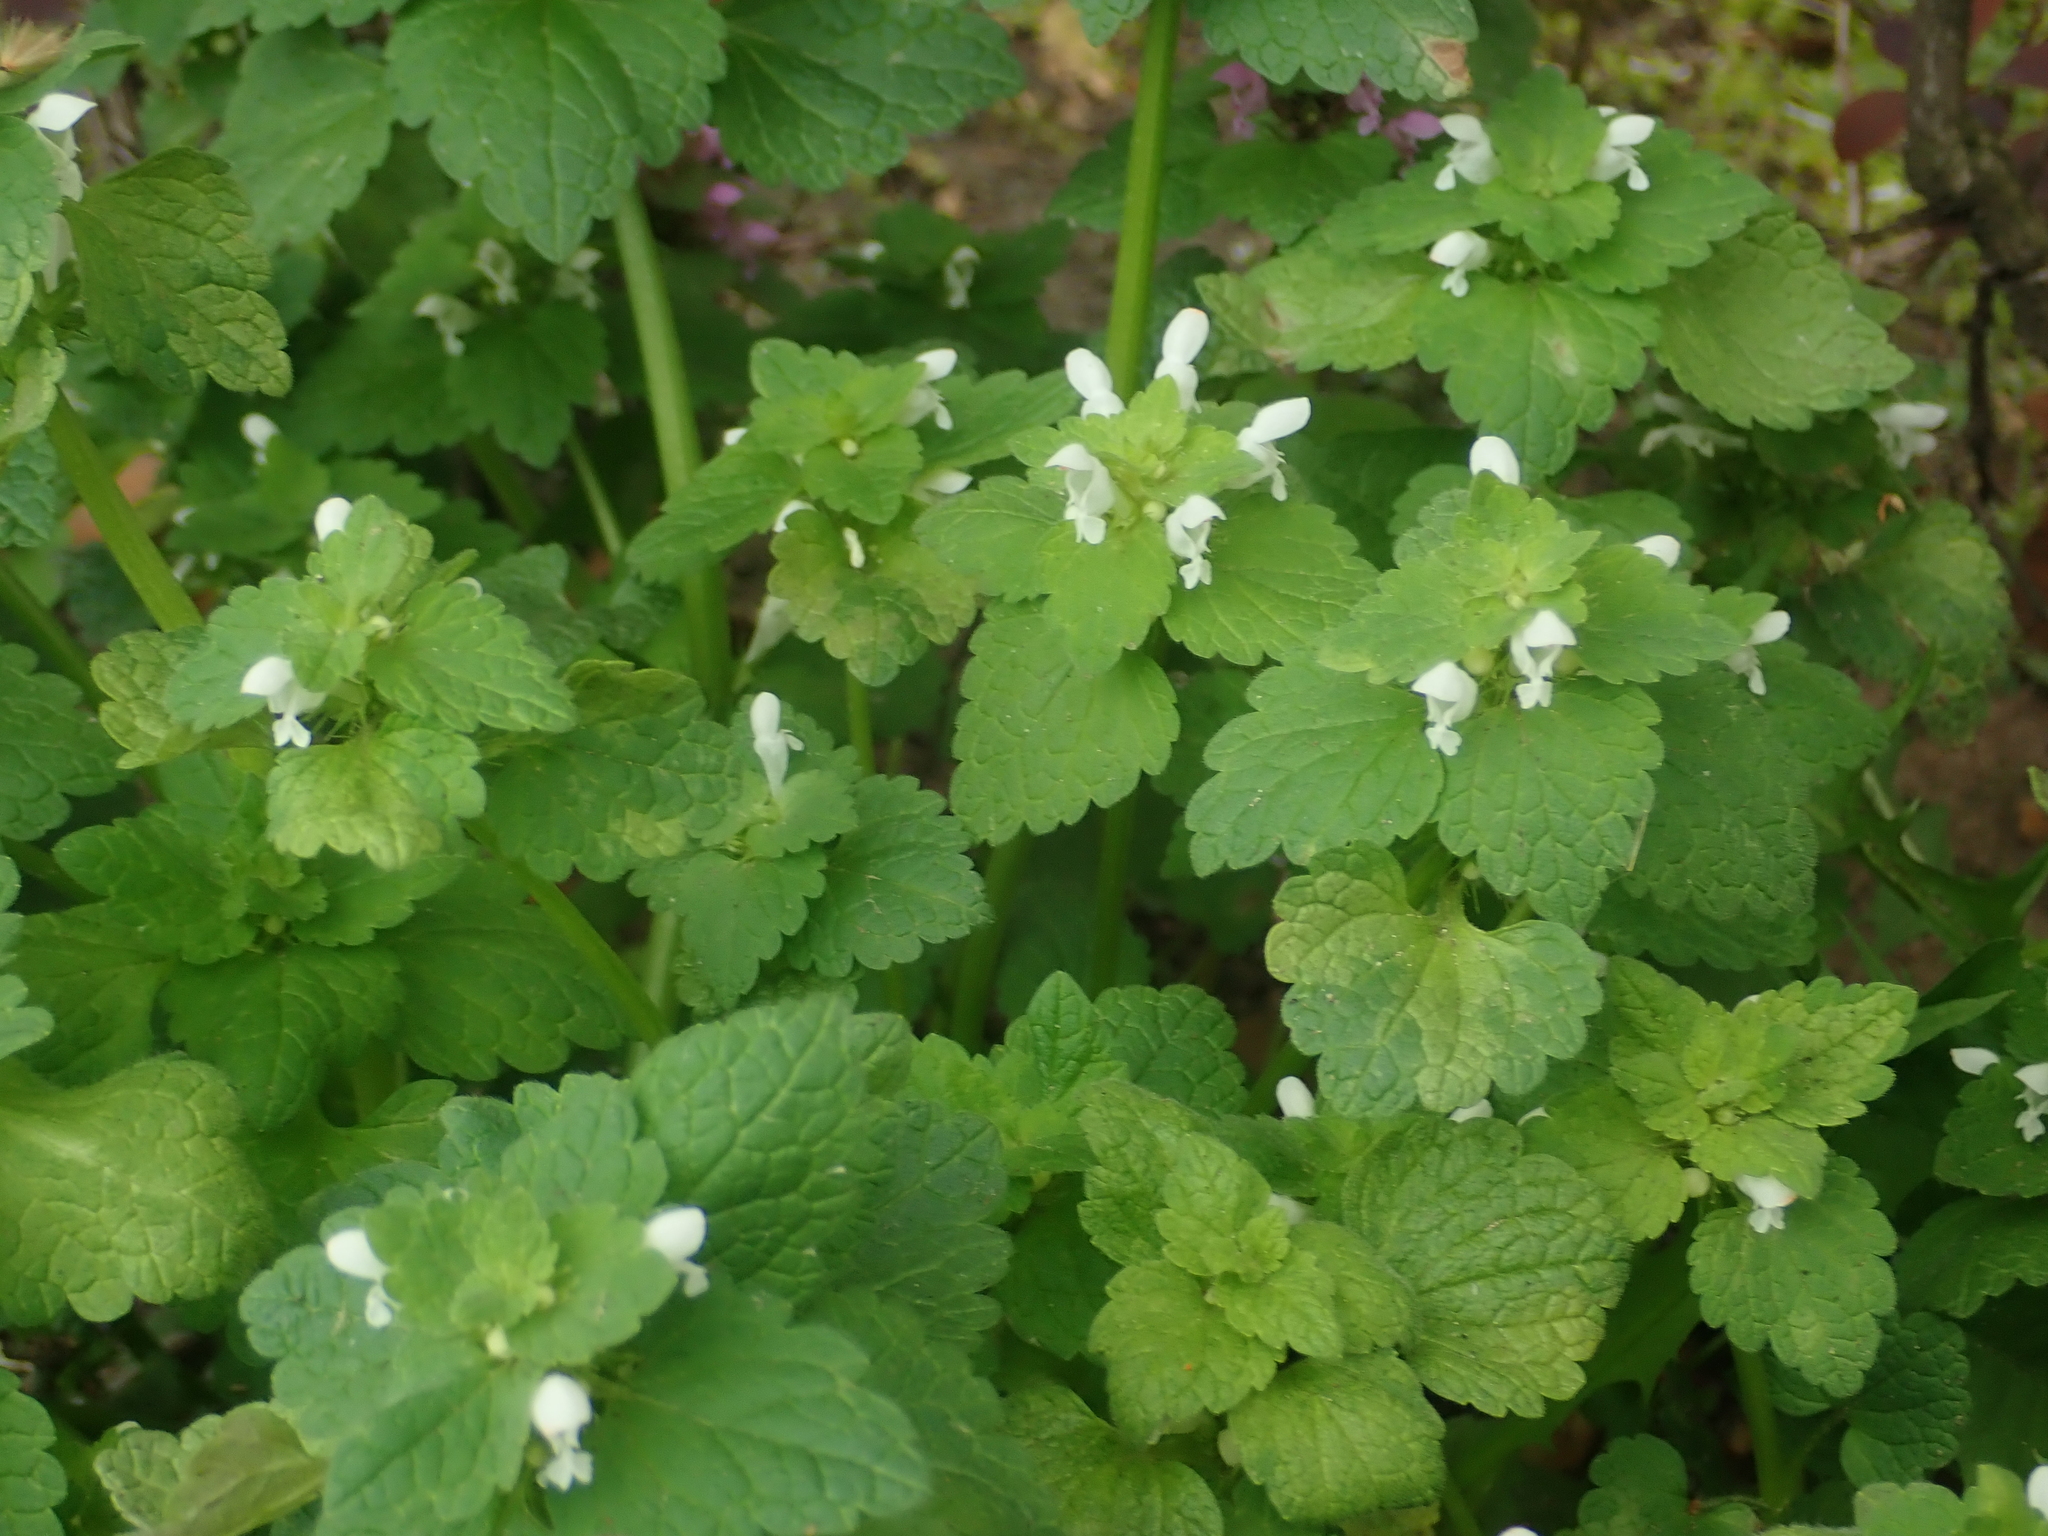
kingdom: Plantae
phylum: Tracheophyta
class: Magnoliopsida
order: Lamiales
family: Lamiaceae
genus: Lamium
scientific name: Lamium purpureum
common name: Red dead-nettle
